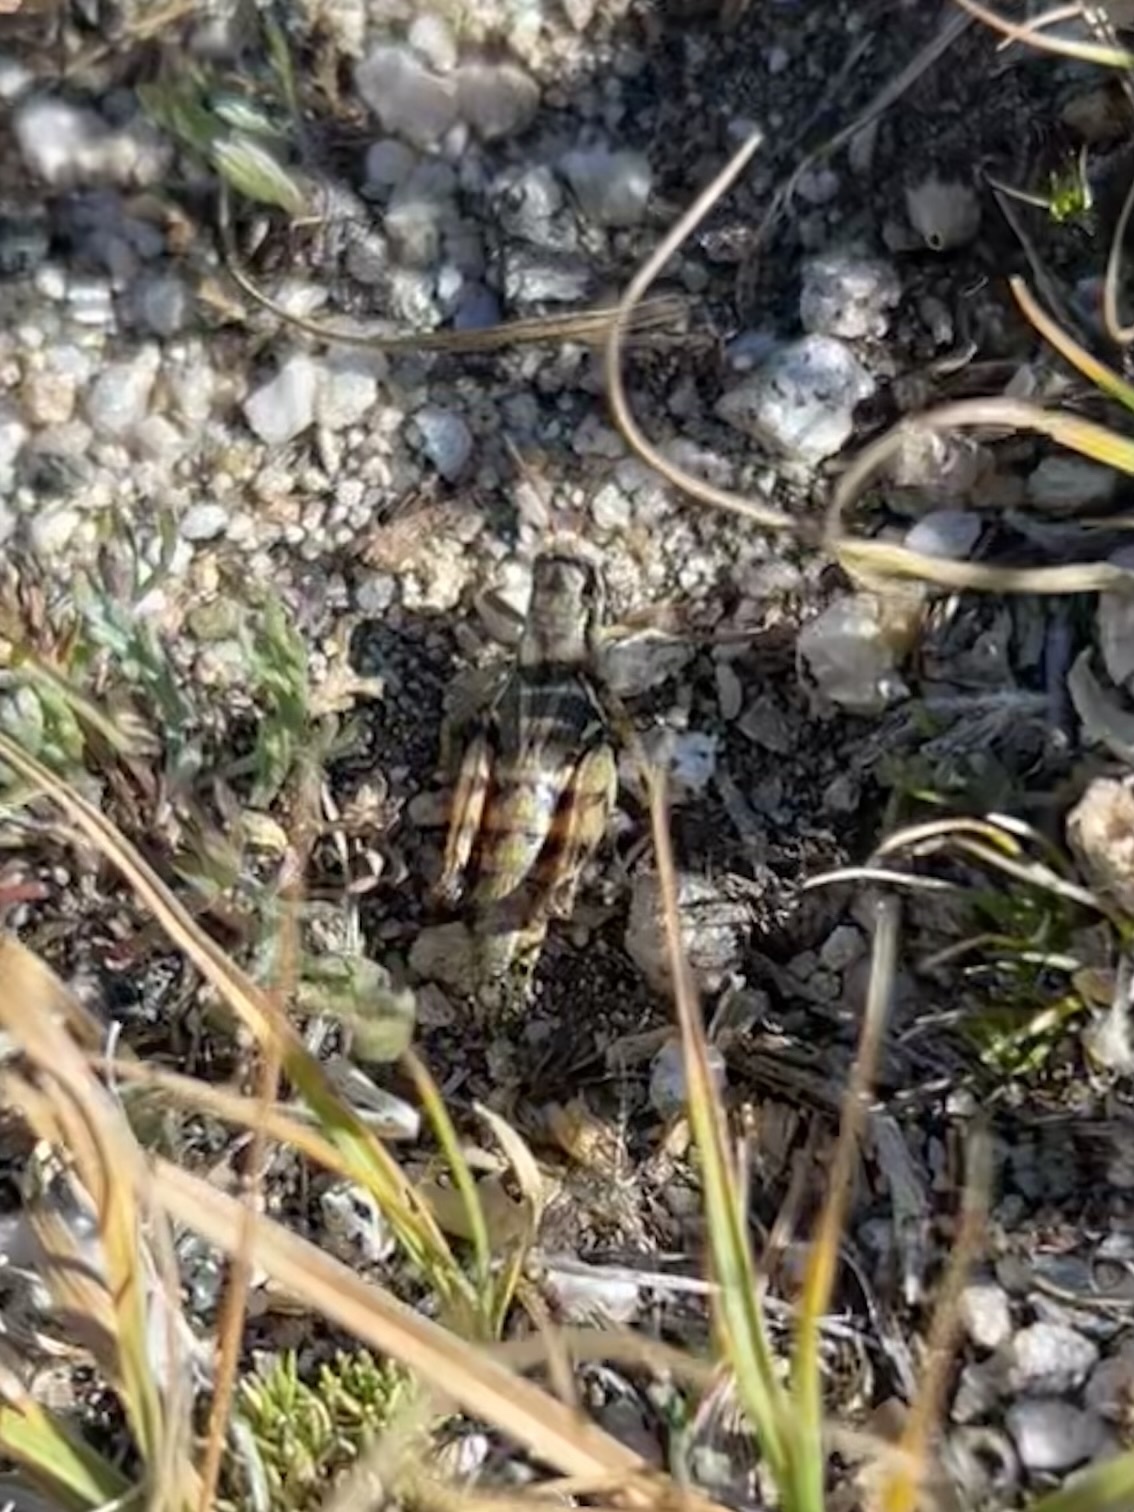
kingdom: Animalia
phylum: Arthropoda
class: Insecta
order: Orthoptera
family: Acrididae
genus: Melanoplus
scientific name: Melanoplus atangi
